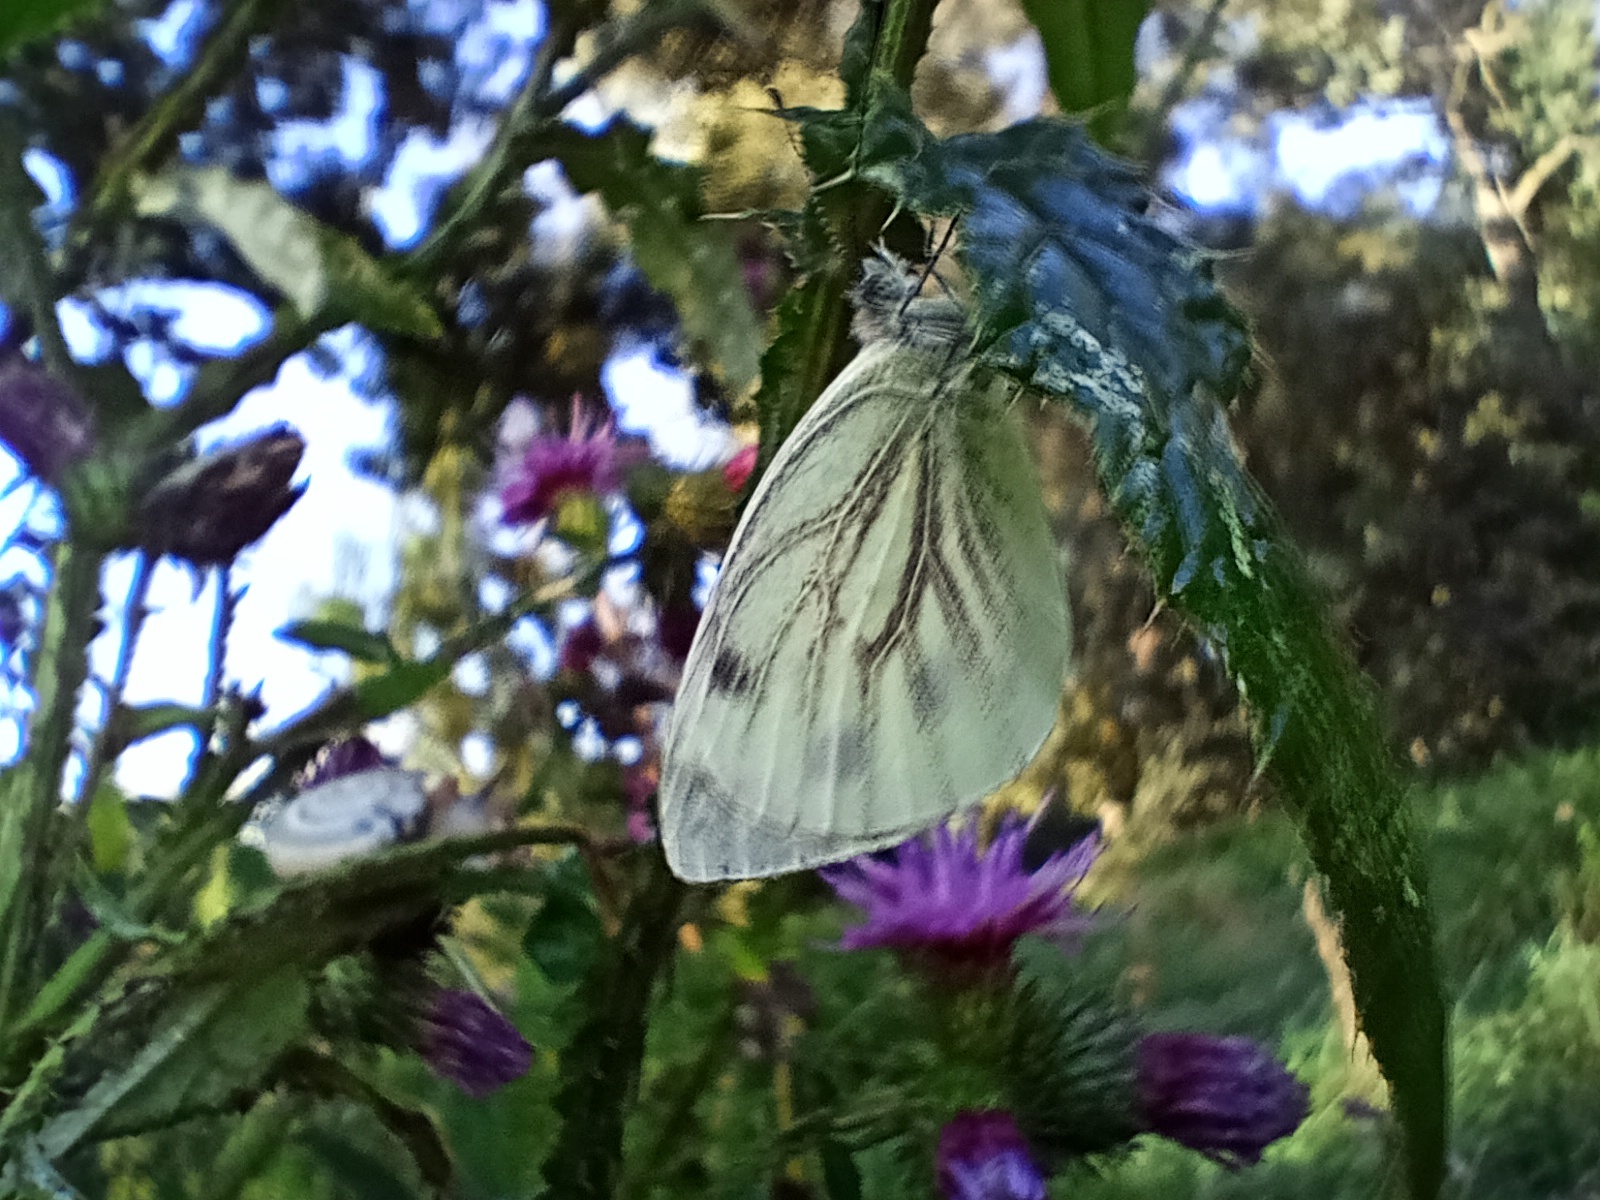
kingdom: Animalia
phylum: Arthropoda
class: Insecta
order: Lepidoptera
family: Pieridae
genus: Pieris
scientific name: Pieris napi
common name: Green-veined white
